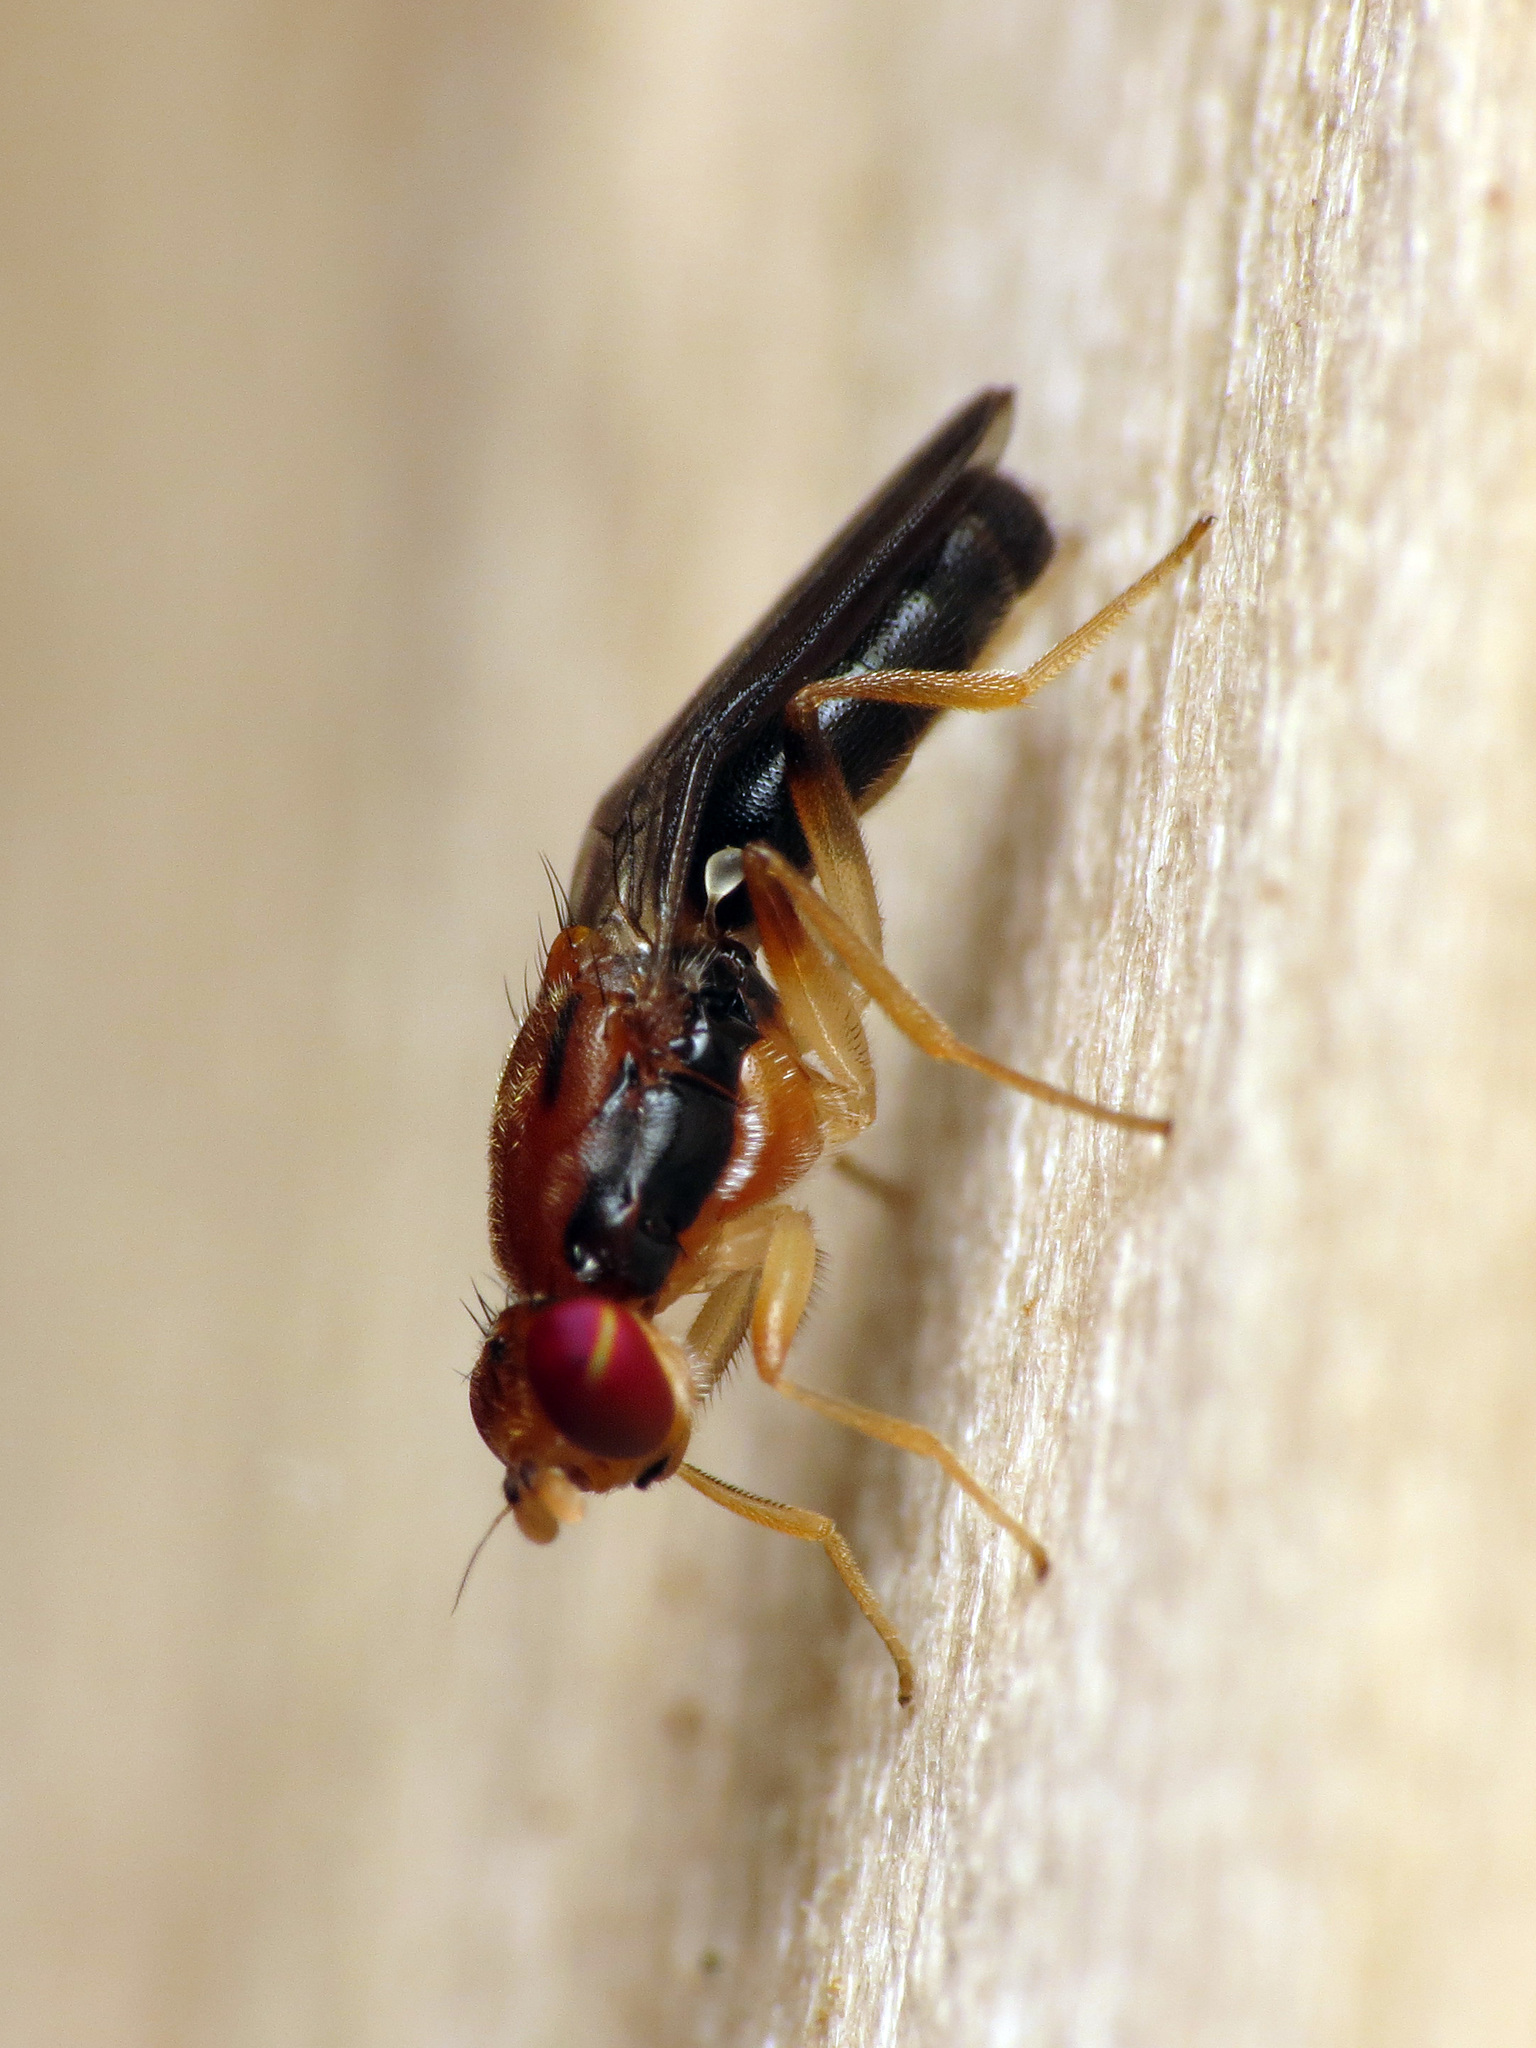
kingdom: Animalia
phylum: Arthropoda
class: Insecta
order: Diptera
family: Psilidae
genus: Chyliza
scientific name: Chyliza apicalis
